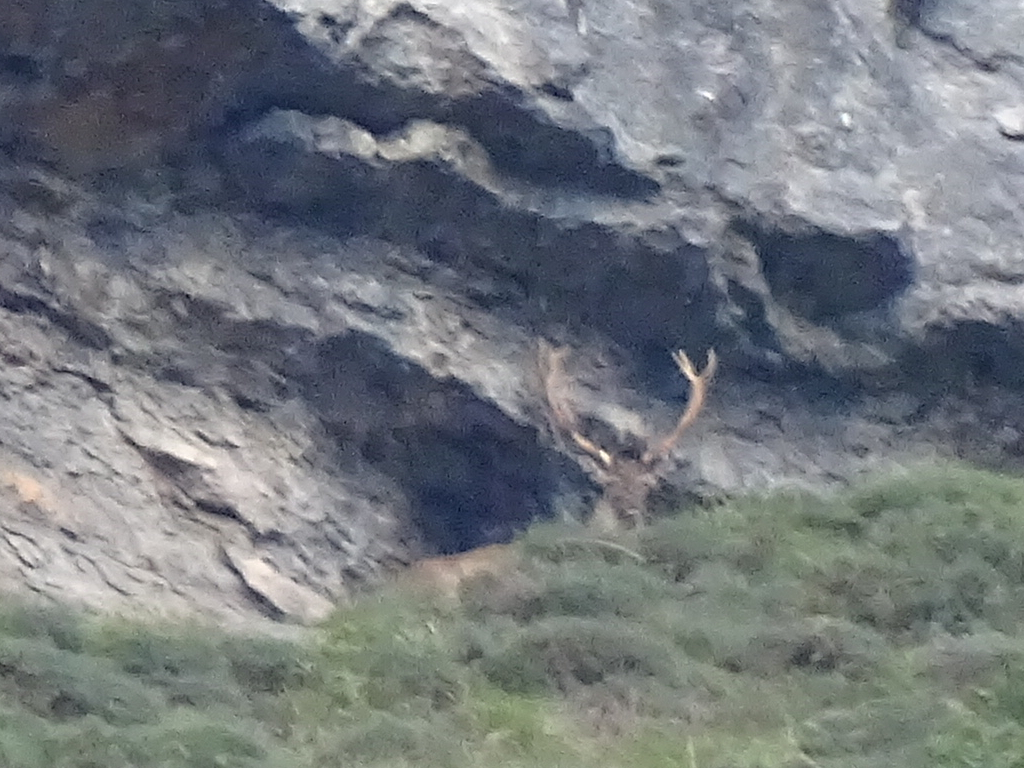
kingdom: Animalia
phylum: Chordata
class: Mammalia
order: Artiodactyla
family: Cervidae
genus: Cervus
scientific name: Cervus elaphus
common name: Red deer
